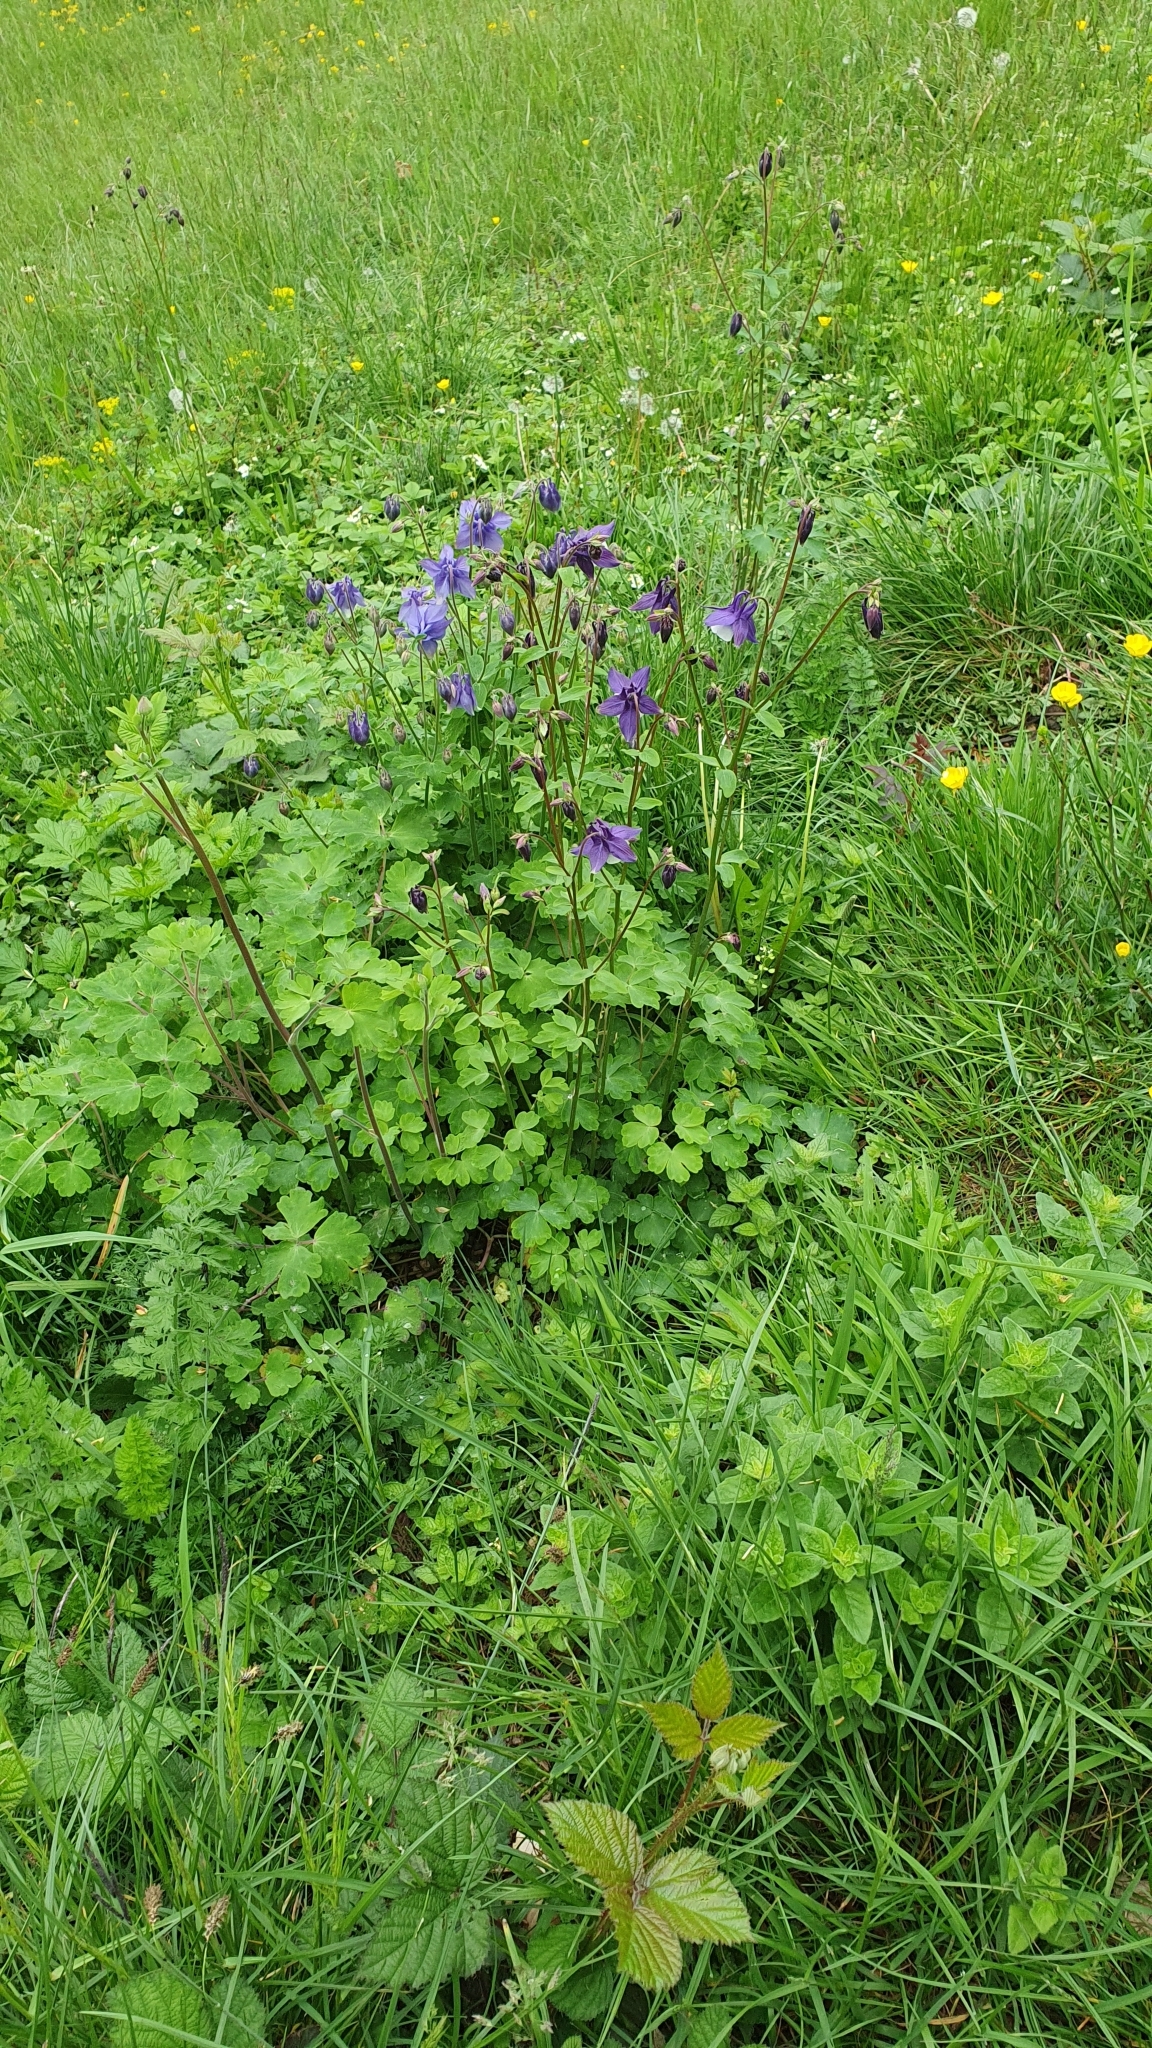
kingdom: Plantae
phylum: Tracheophyta
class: Magnoliopsida
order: Ranunculales
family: Ranunculaceae
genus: Aquilegia
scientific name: Aquilegia vulgaris
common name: Columbine
